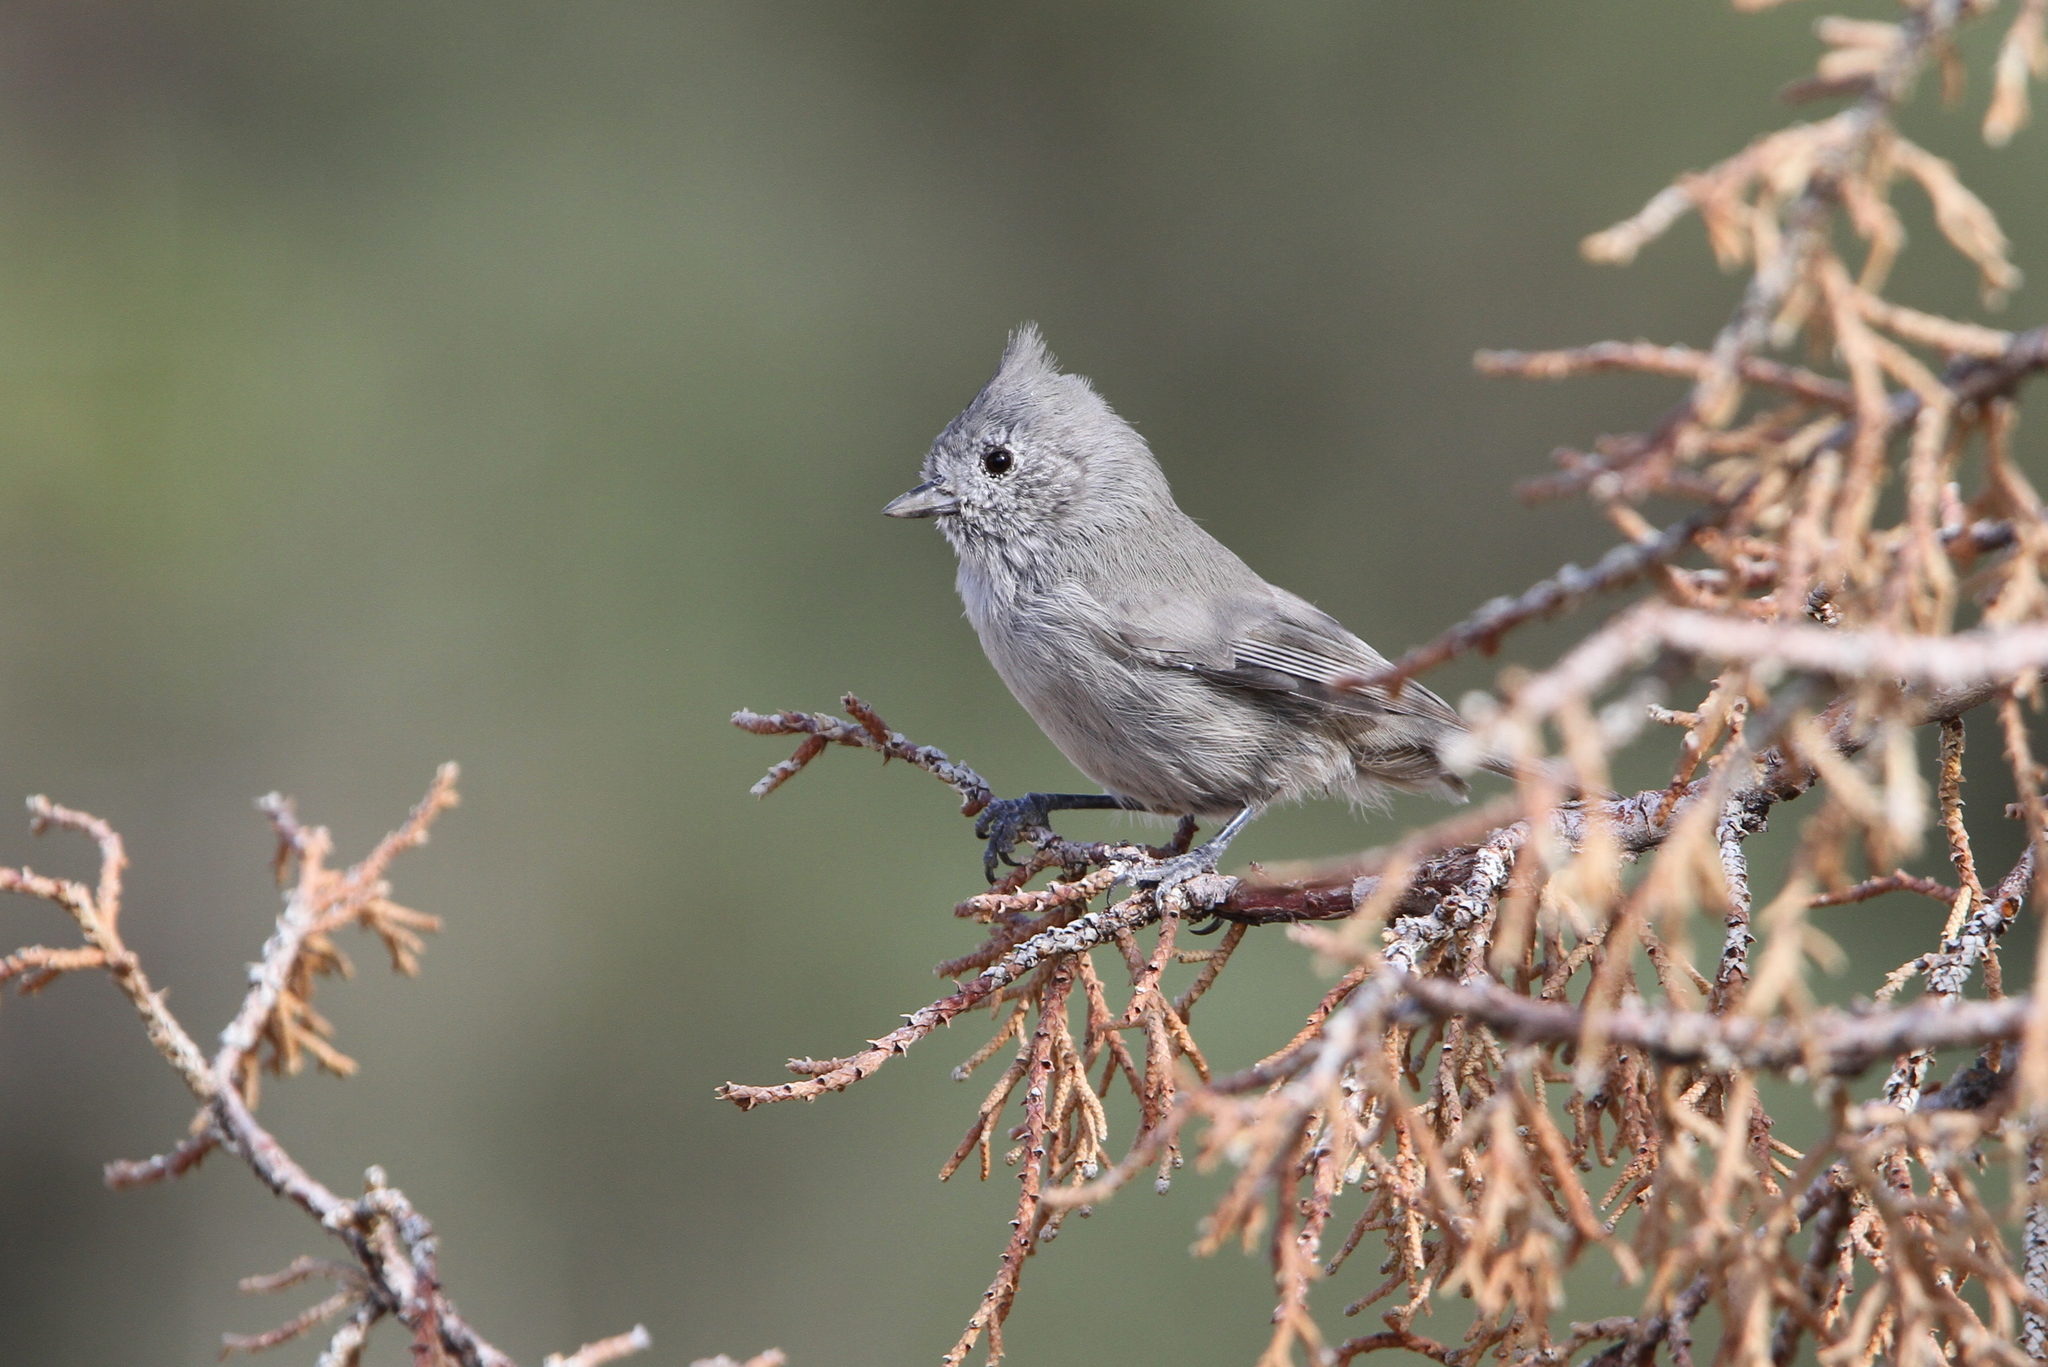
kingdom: Animalia
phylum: Chordata
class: Aves
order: Passeriformes
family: Paridae
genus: Baeolophus
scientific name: Baeolophus ridgwayi
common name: Juniper titmouse
